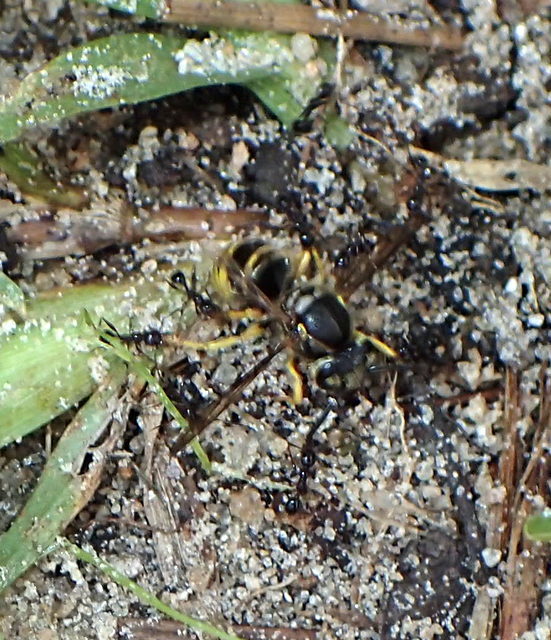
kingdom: Animalia
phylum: Arthropoda
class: Insecta
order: Hymenoptera
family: Formicidae
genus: Pheidole
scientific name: Pheidole obscurithorax
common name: Obscure big-headed ant
